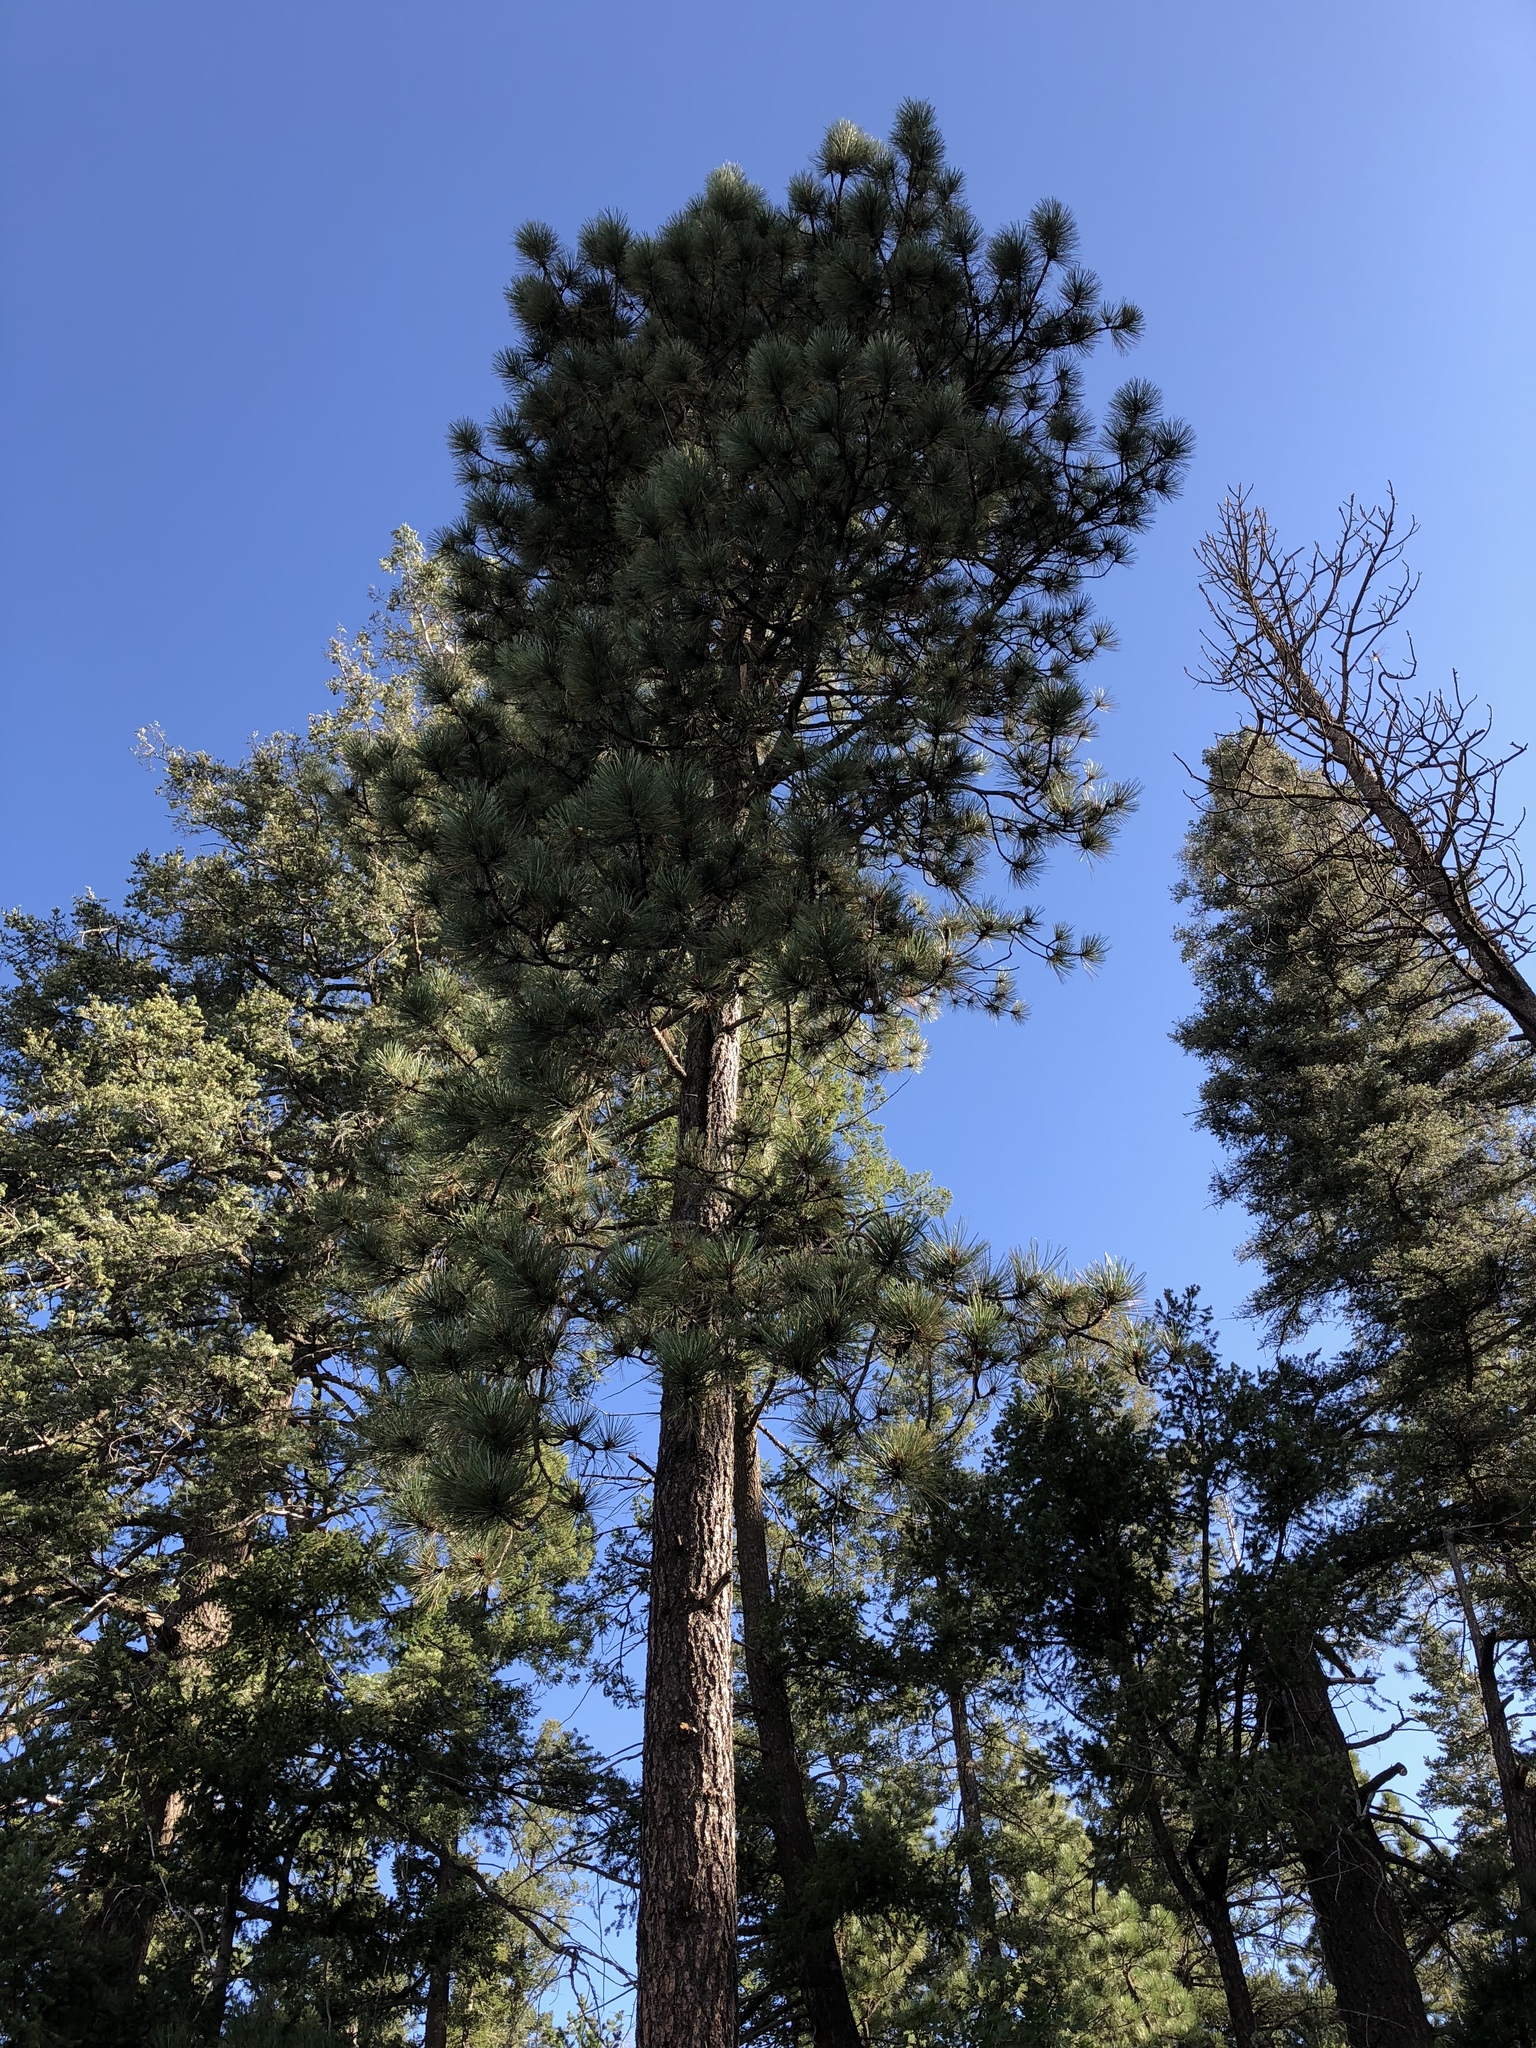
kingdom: Plantae
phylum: Tracheophyta
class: Pinopsida
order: Pinales
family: Pinaceae
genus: Pinus
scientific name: Pinus ponderosa
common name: Western yellow-pine
